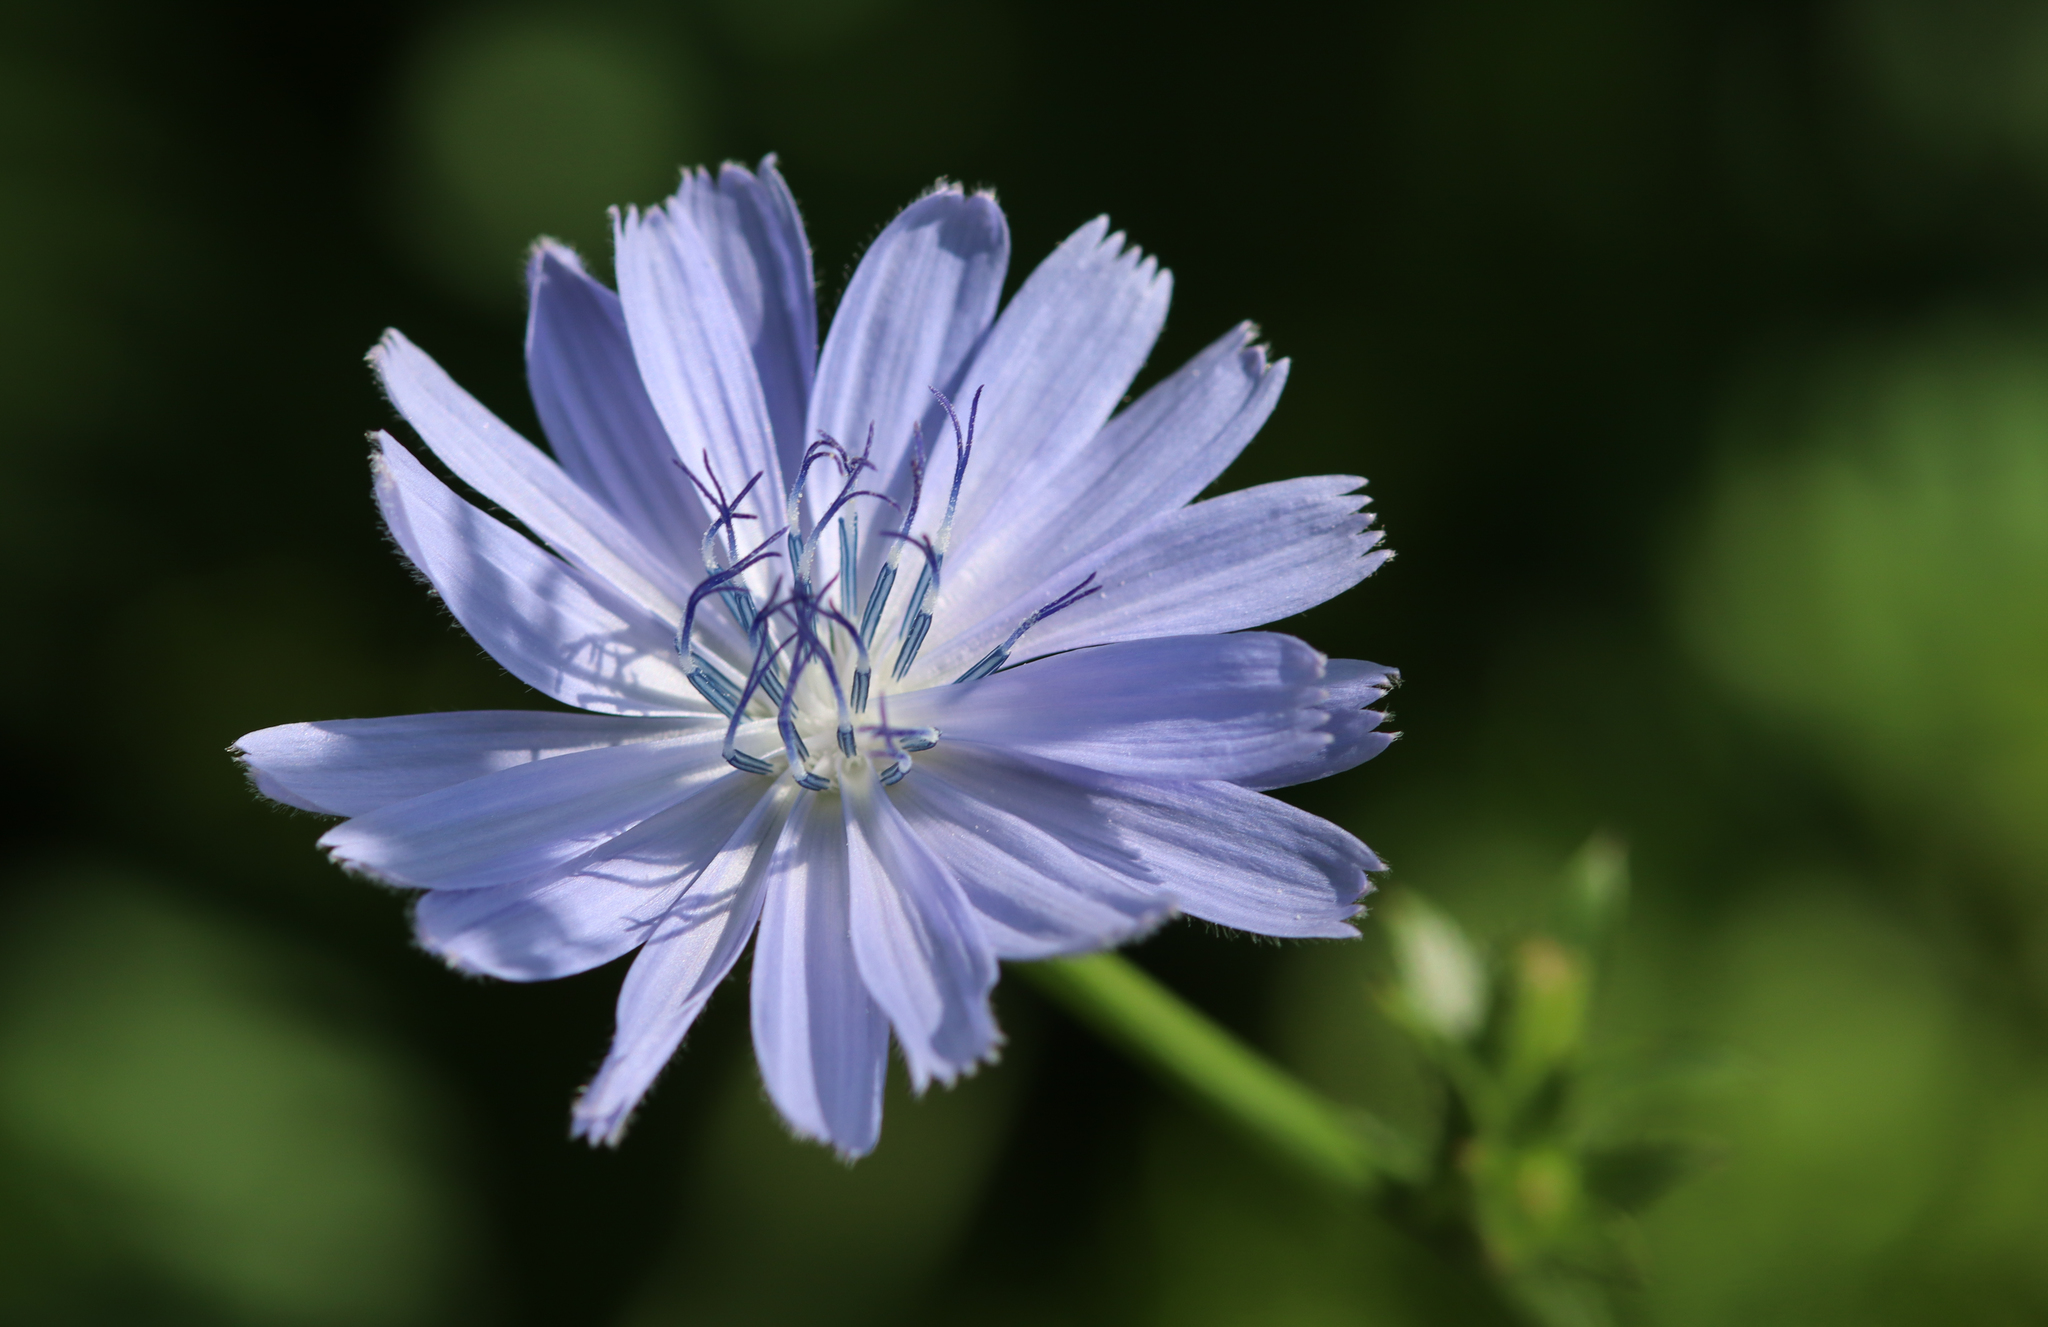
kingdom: Plantae
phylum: Tracheophyta
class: Magnoliopsida
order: Asterales
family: Asteraceae
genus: Cichorium
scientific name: Cichorium intybus
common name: Chicory
